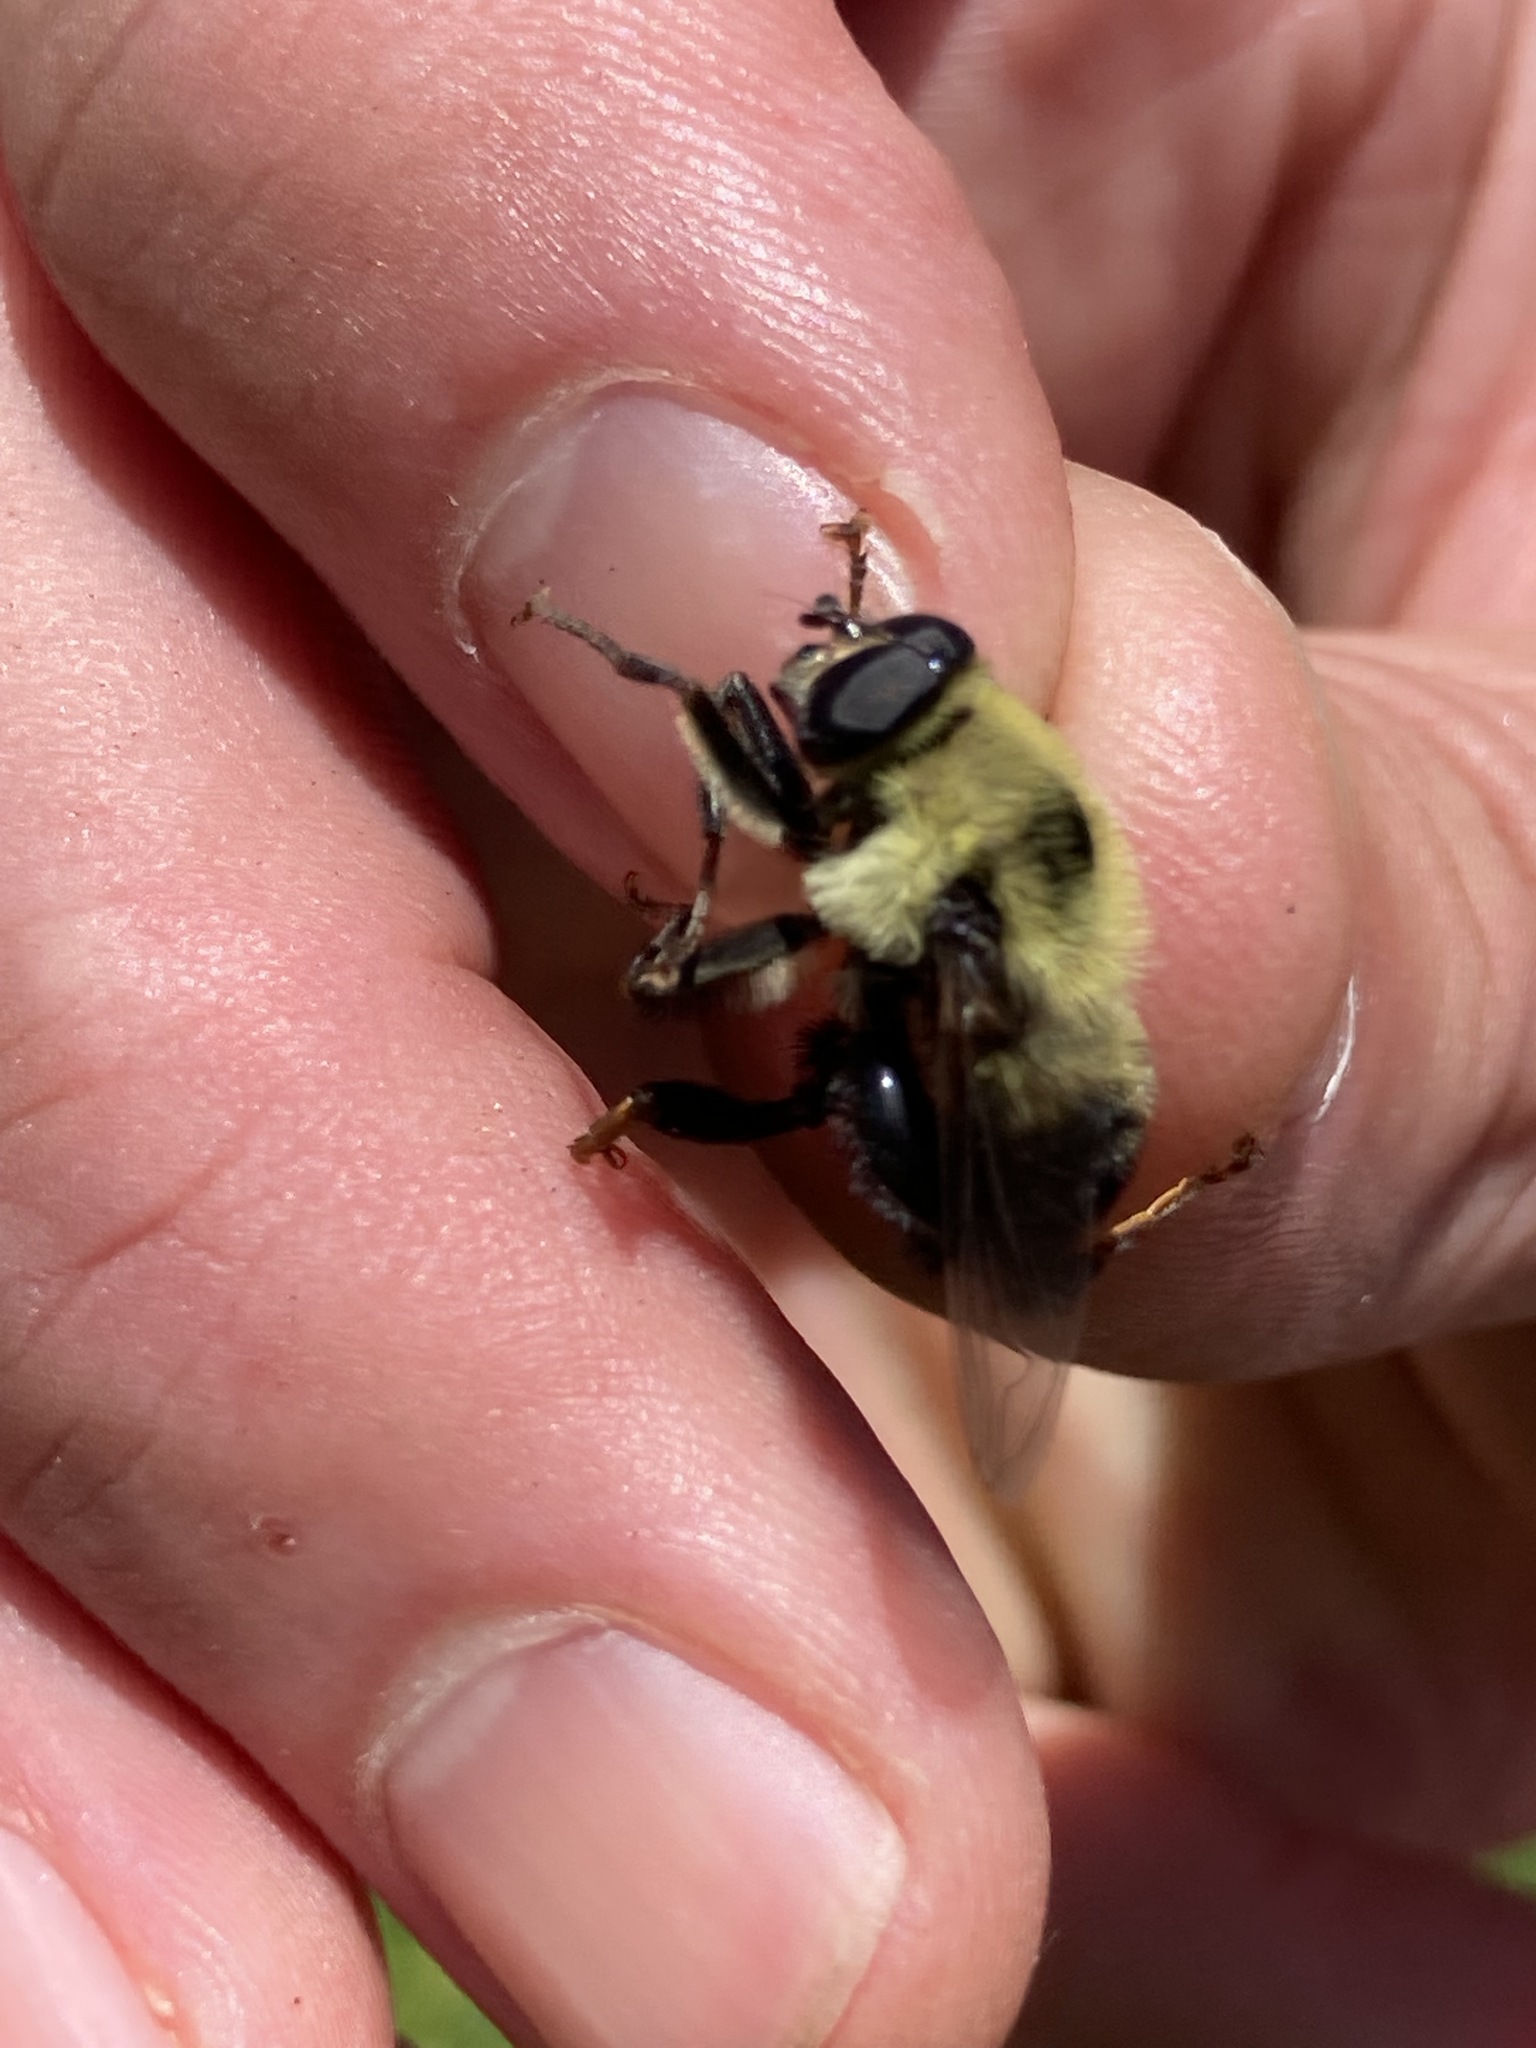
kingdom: Animalia
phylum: Arthropoda
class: Insecta
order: Diptera
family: Syrphidae
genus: Imatisma
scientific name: Imatisma posticata
